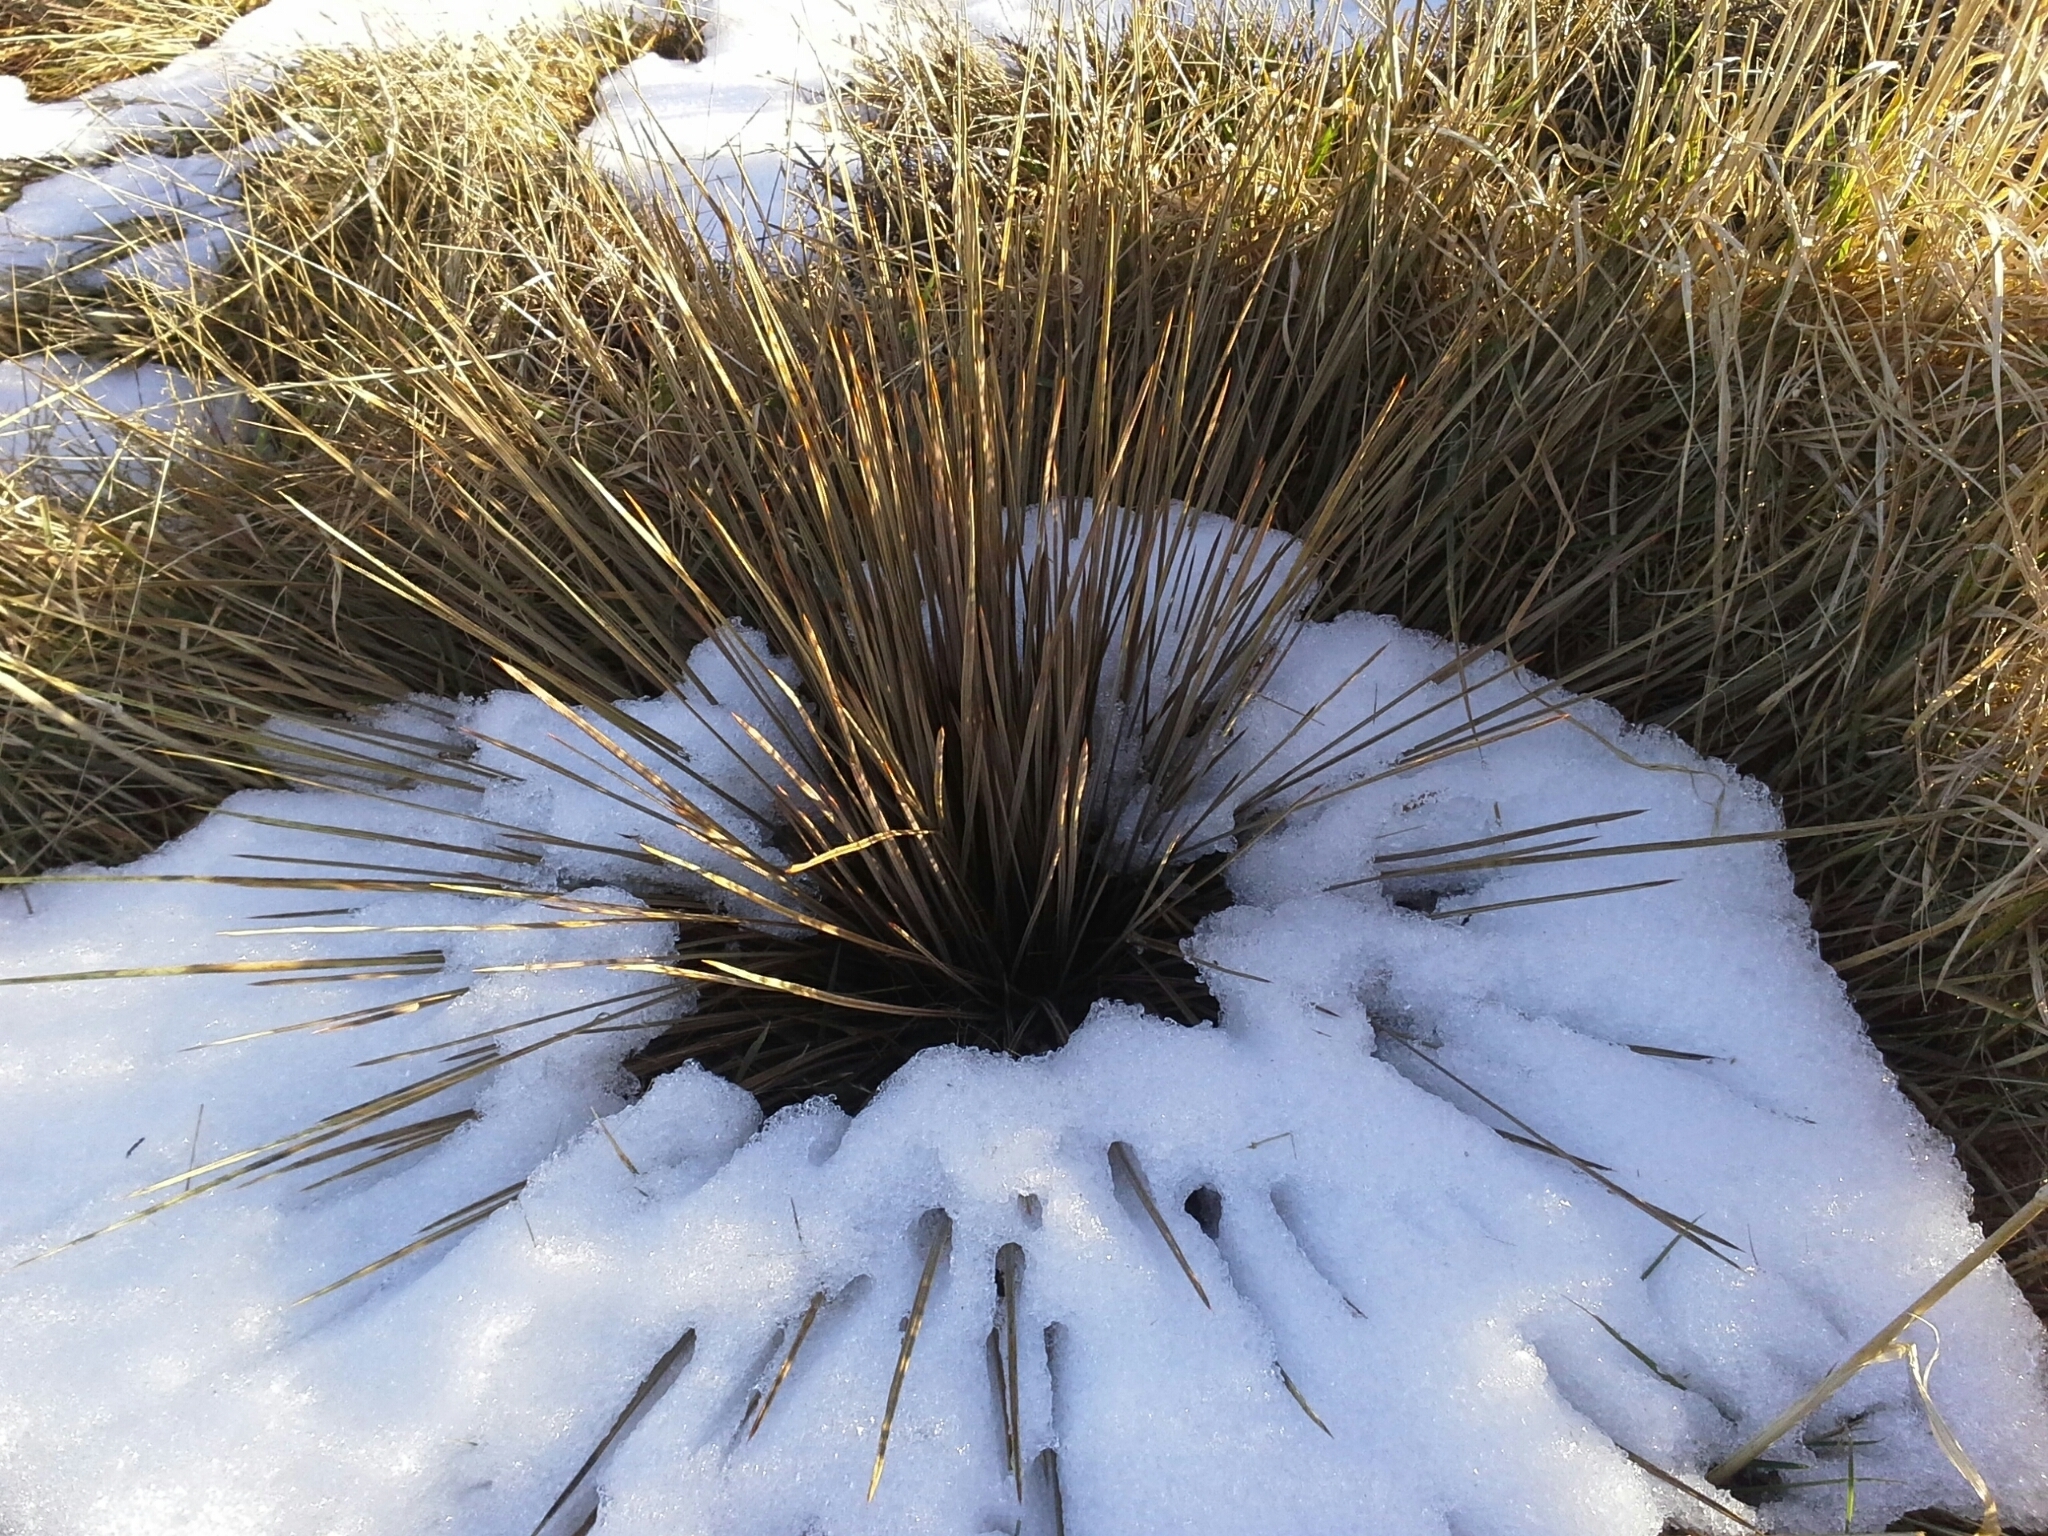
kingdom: Plantae
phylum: Tracheophyta
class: Magnoliopsida
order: Apiales
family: Apiaceae
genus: Aciphylla
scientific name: Aciphylla subflabellata
